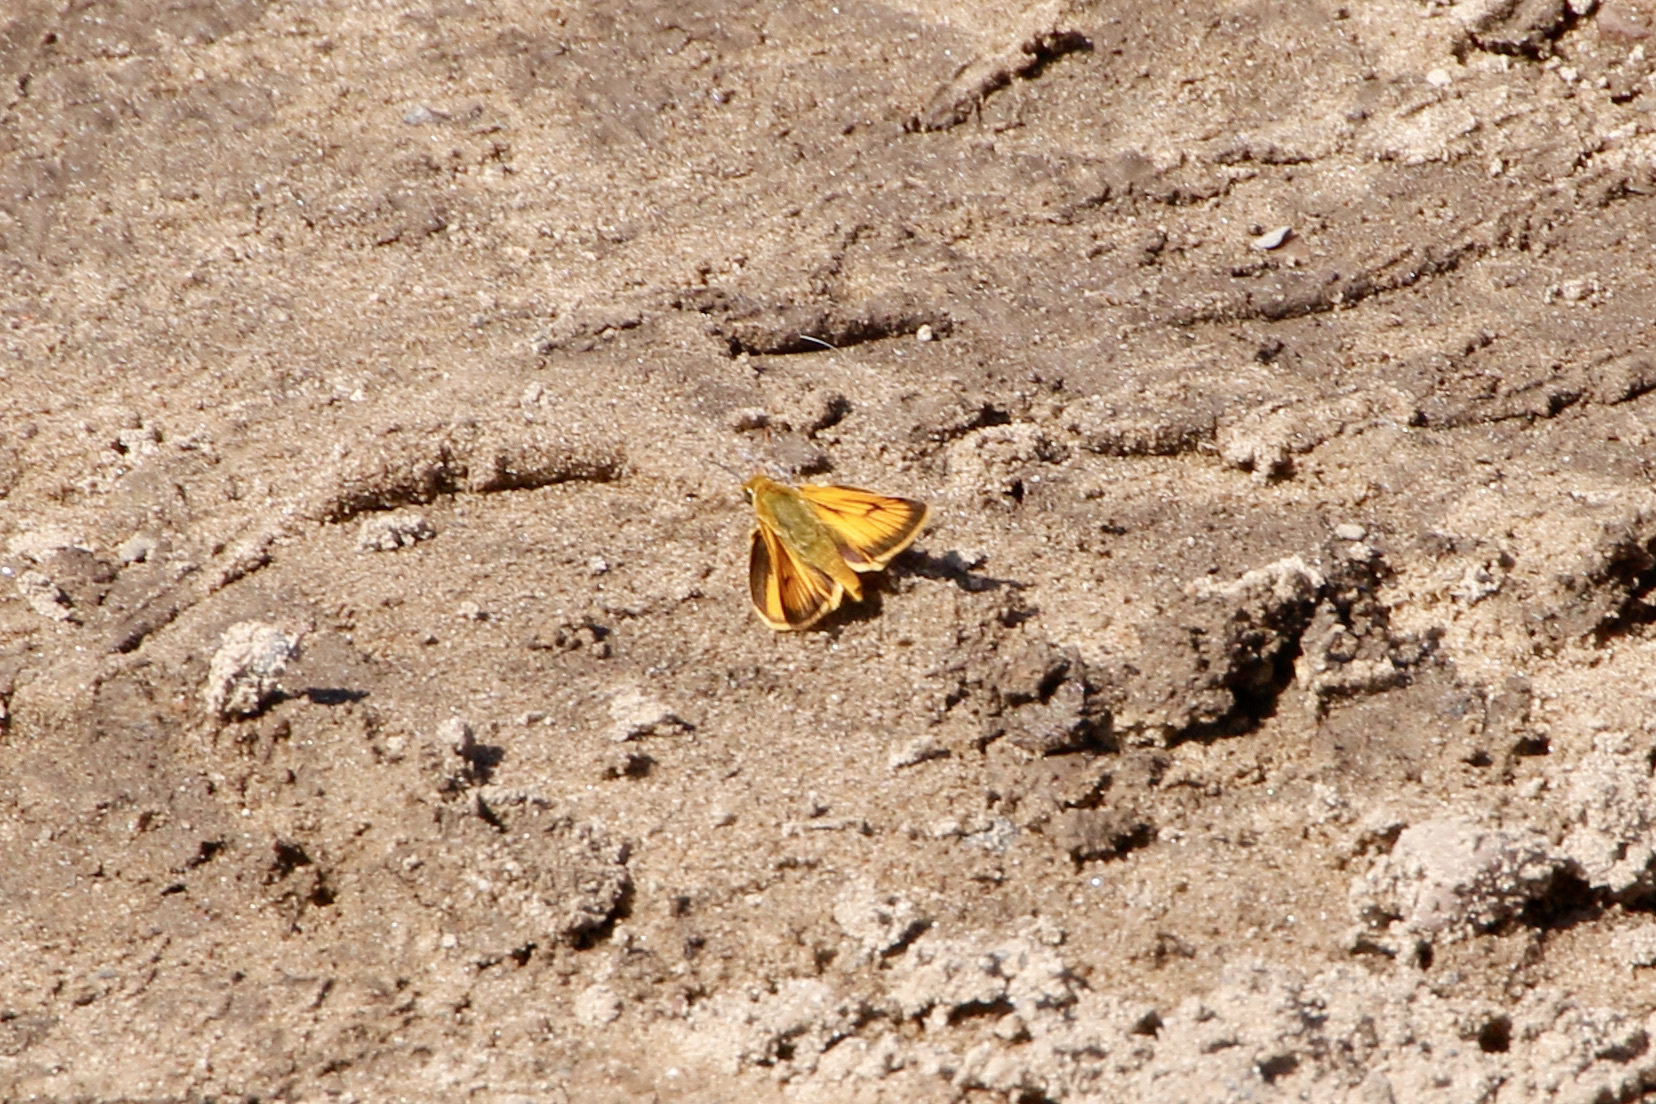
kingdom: Animalia
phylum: Arthropoda
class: Insecta
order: Lepidoptera
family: Hesperiidae
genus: Atrytone
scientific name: Atrytone delaware
